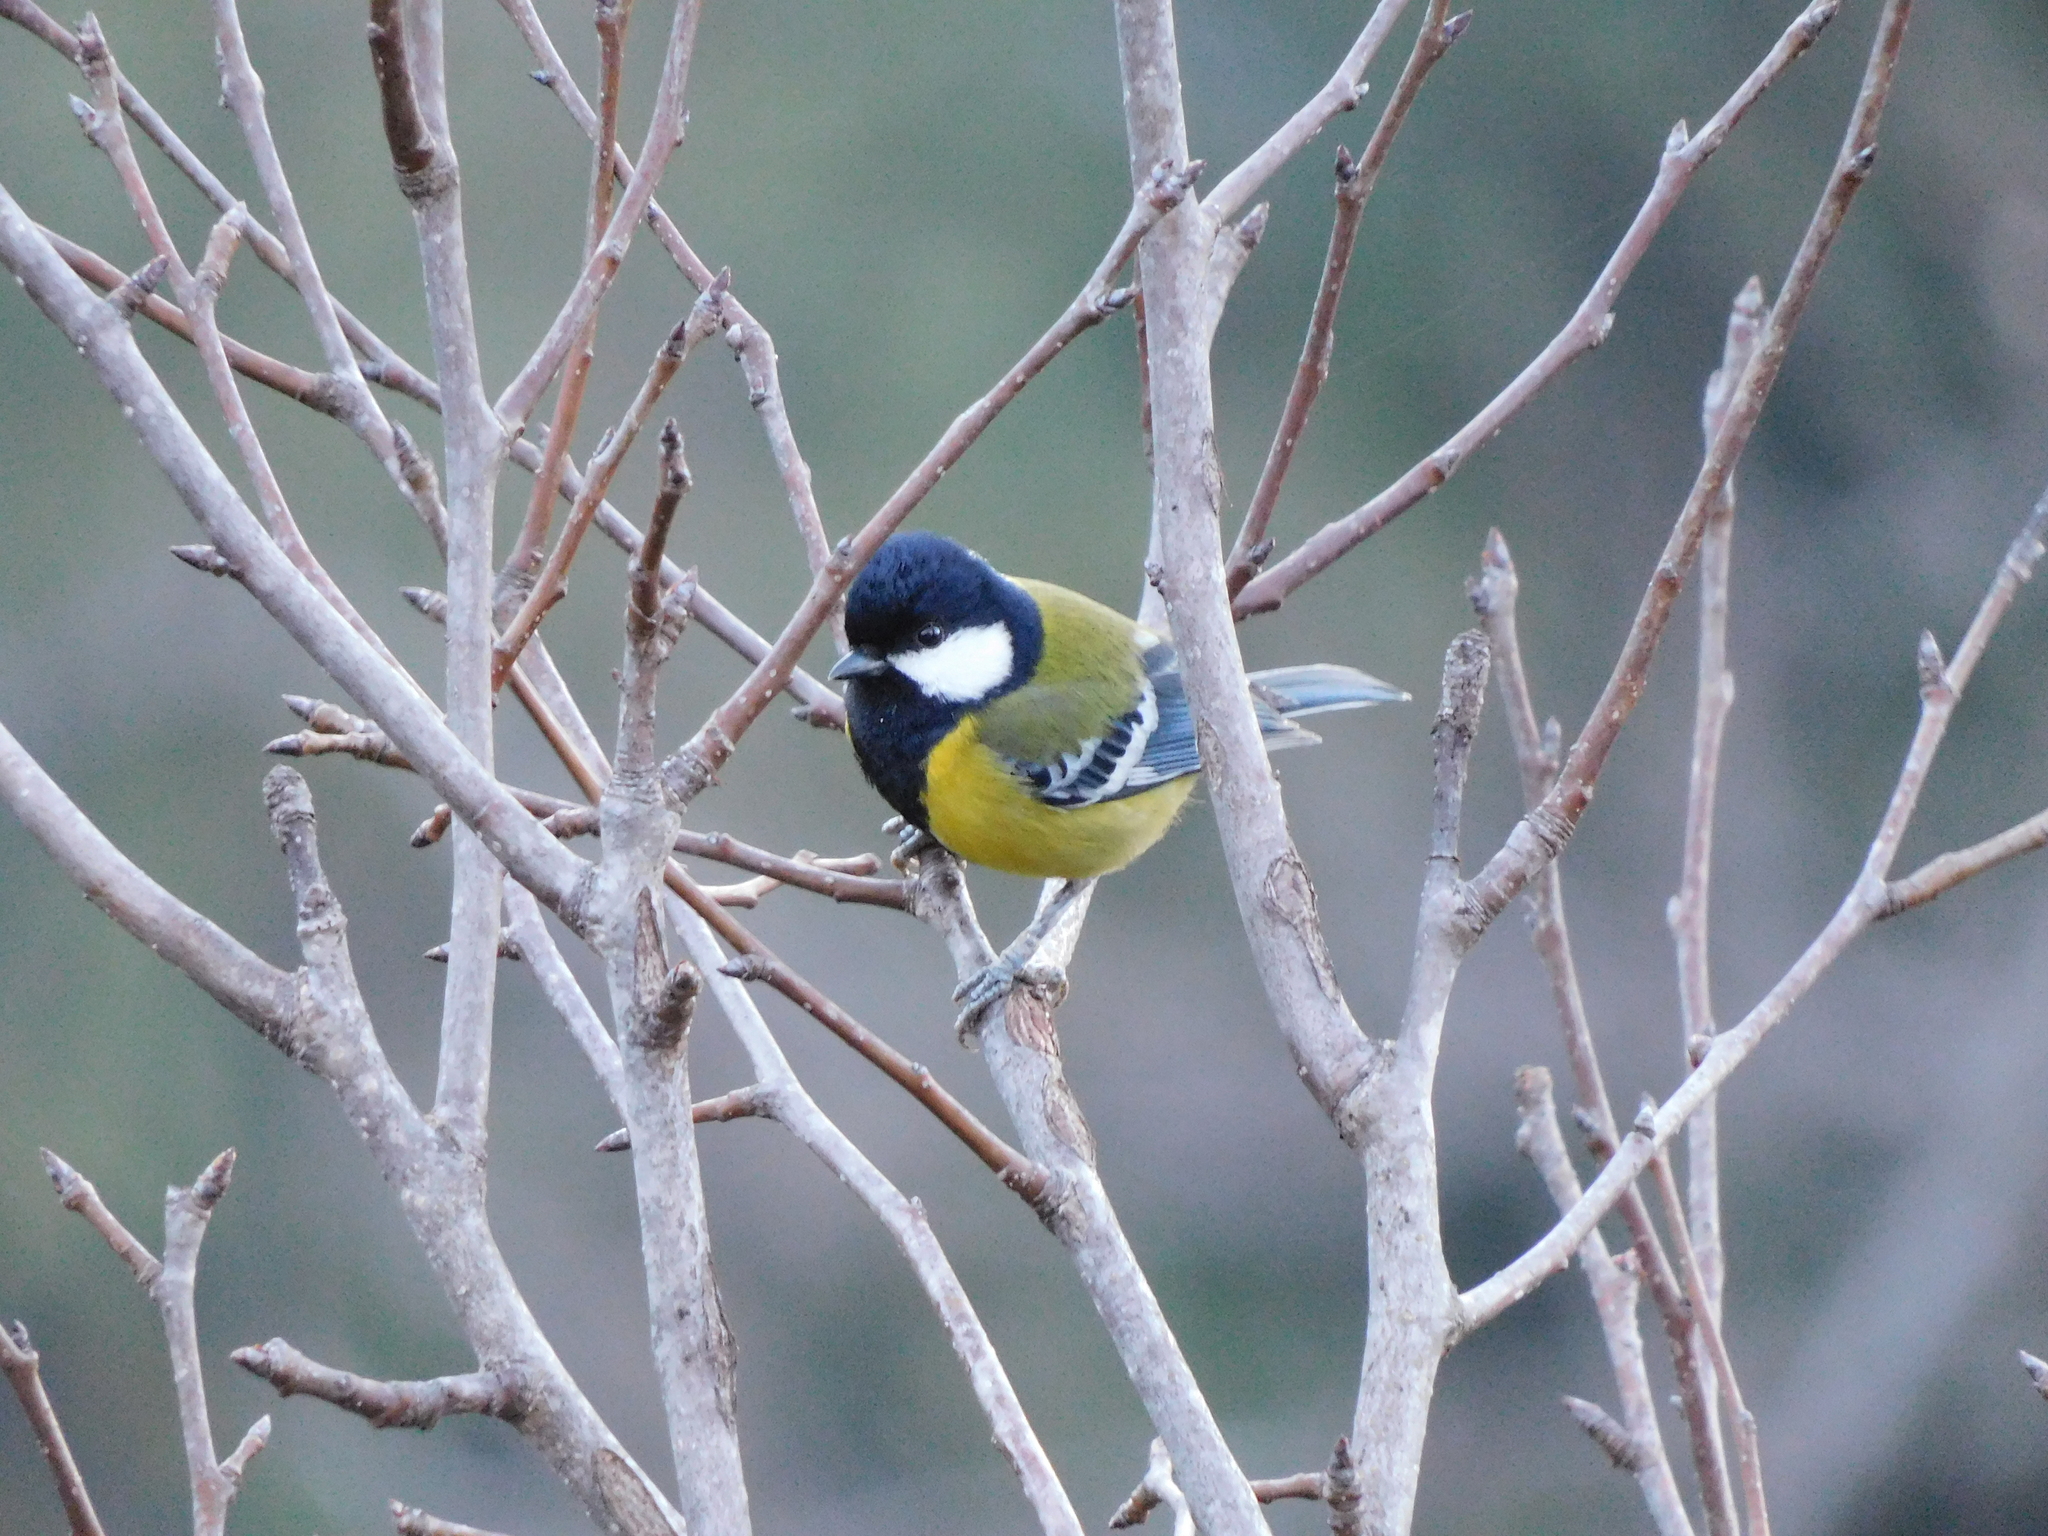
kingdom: Animalia
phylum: Chordata
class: Aves
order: Passeriformes
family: Paridae
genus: Parus
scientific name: Parus monticolus
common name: Green-backed tit
